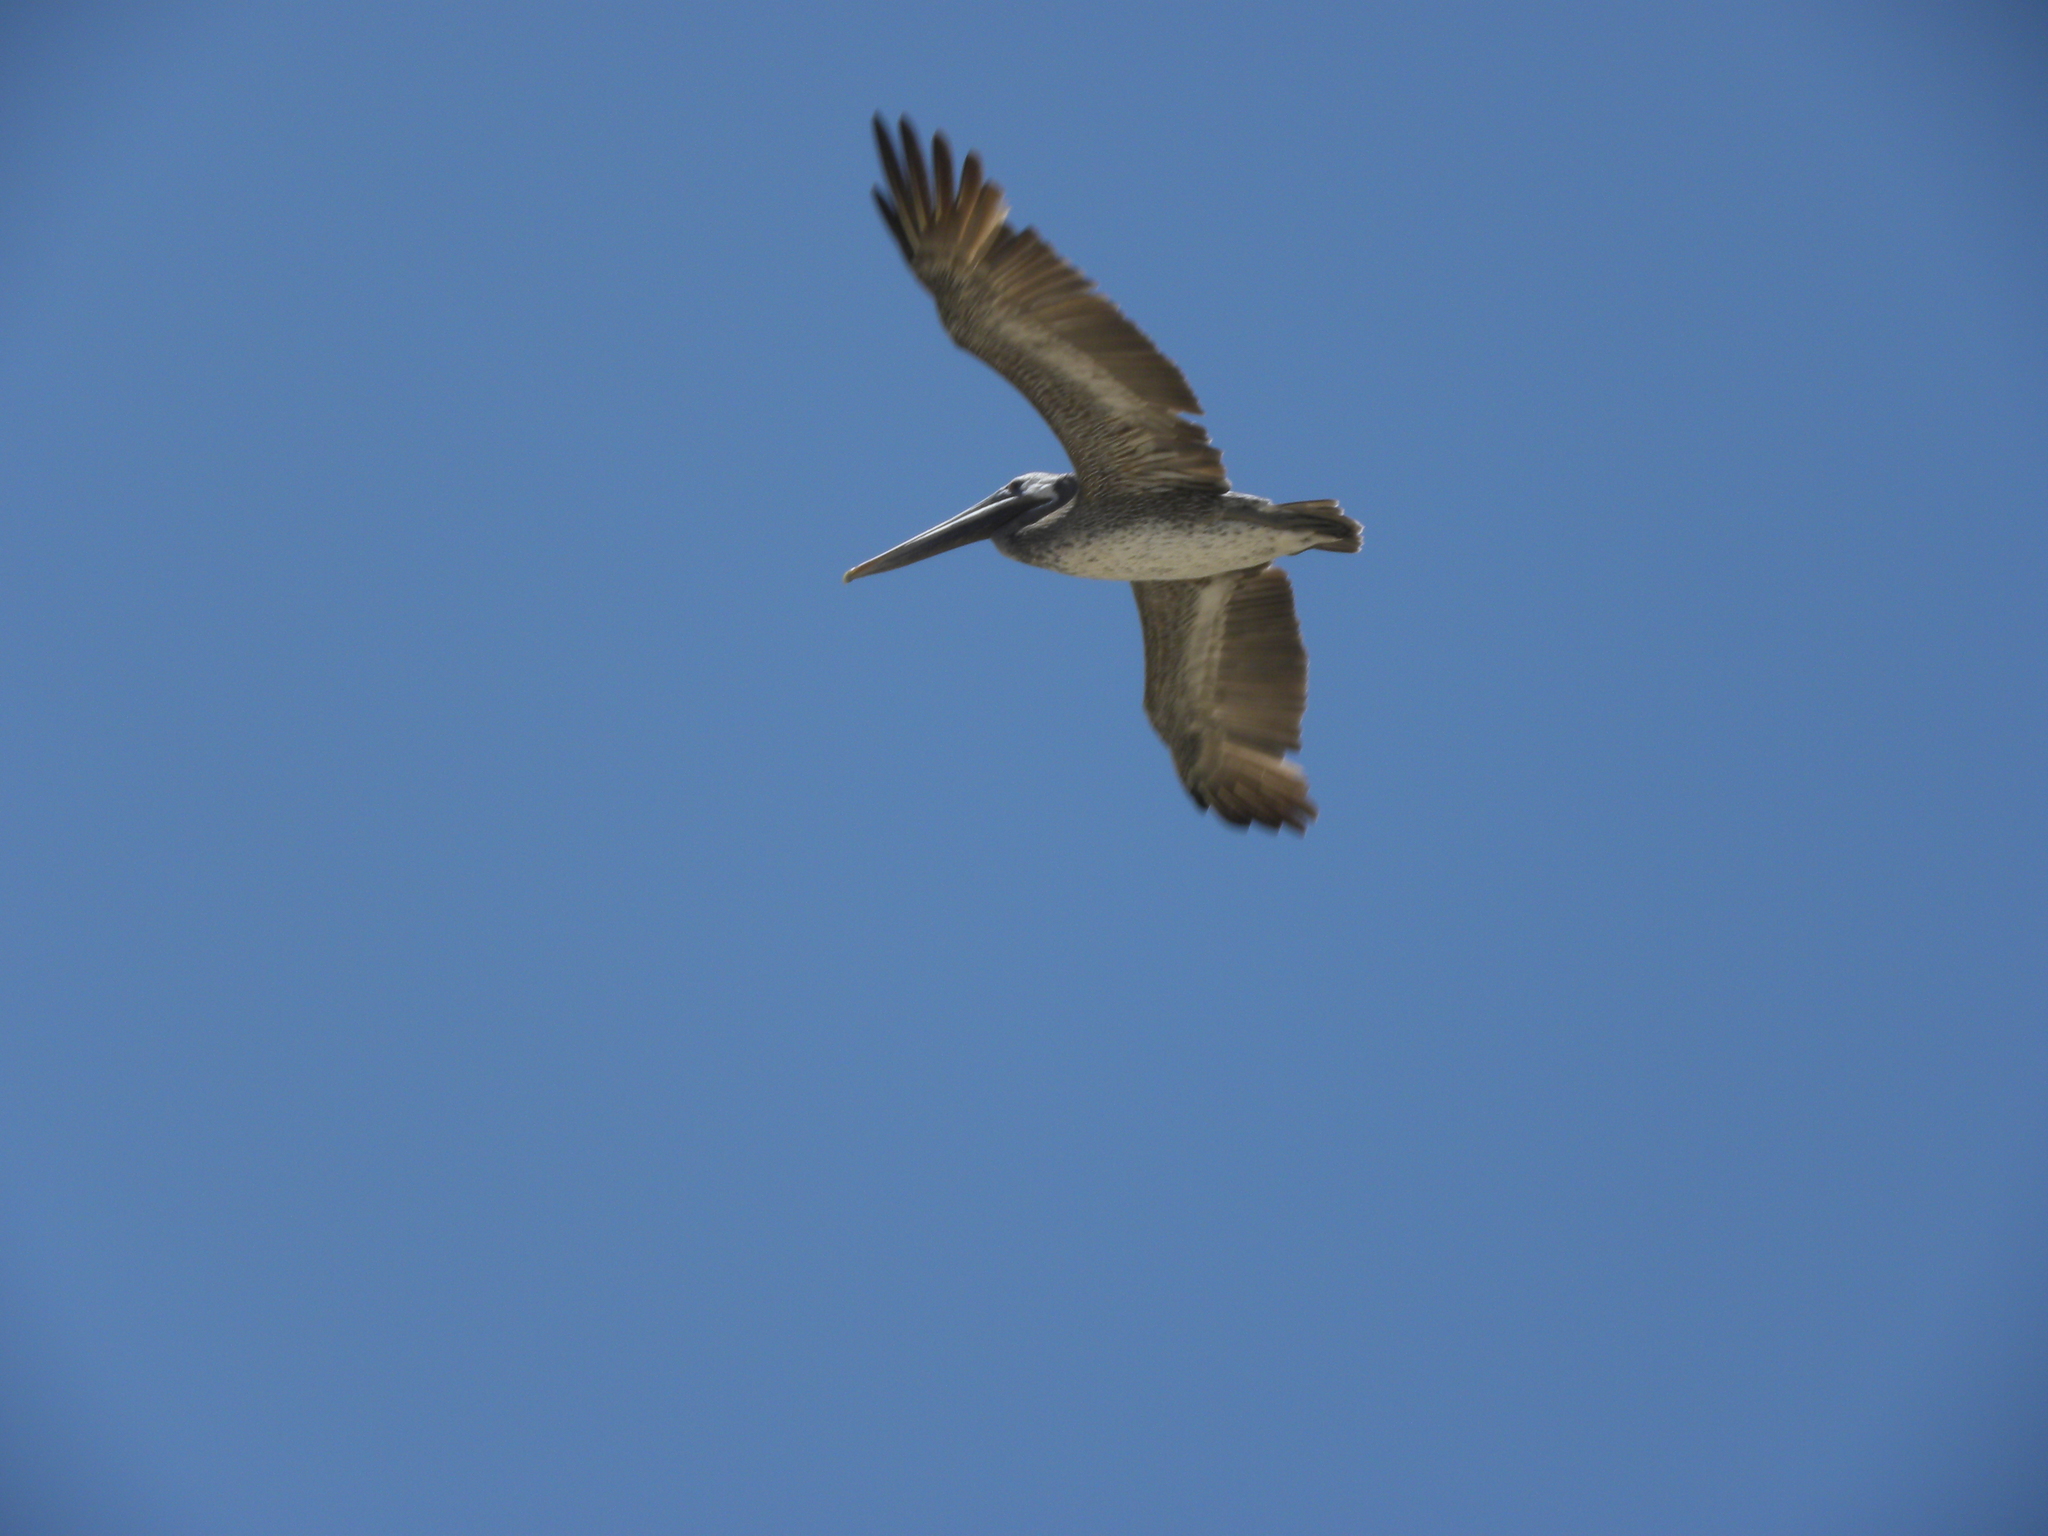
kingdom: Animalia
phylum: Chordata
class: Aves
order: Pelecaniformes
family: Pelecanidae
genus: Pelecanus
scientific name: Pelecanus occidentalis
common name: Brown pelican
